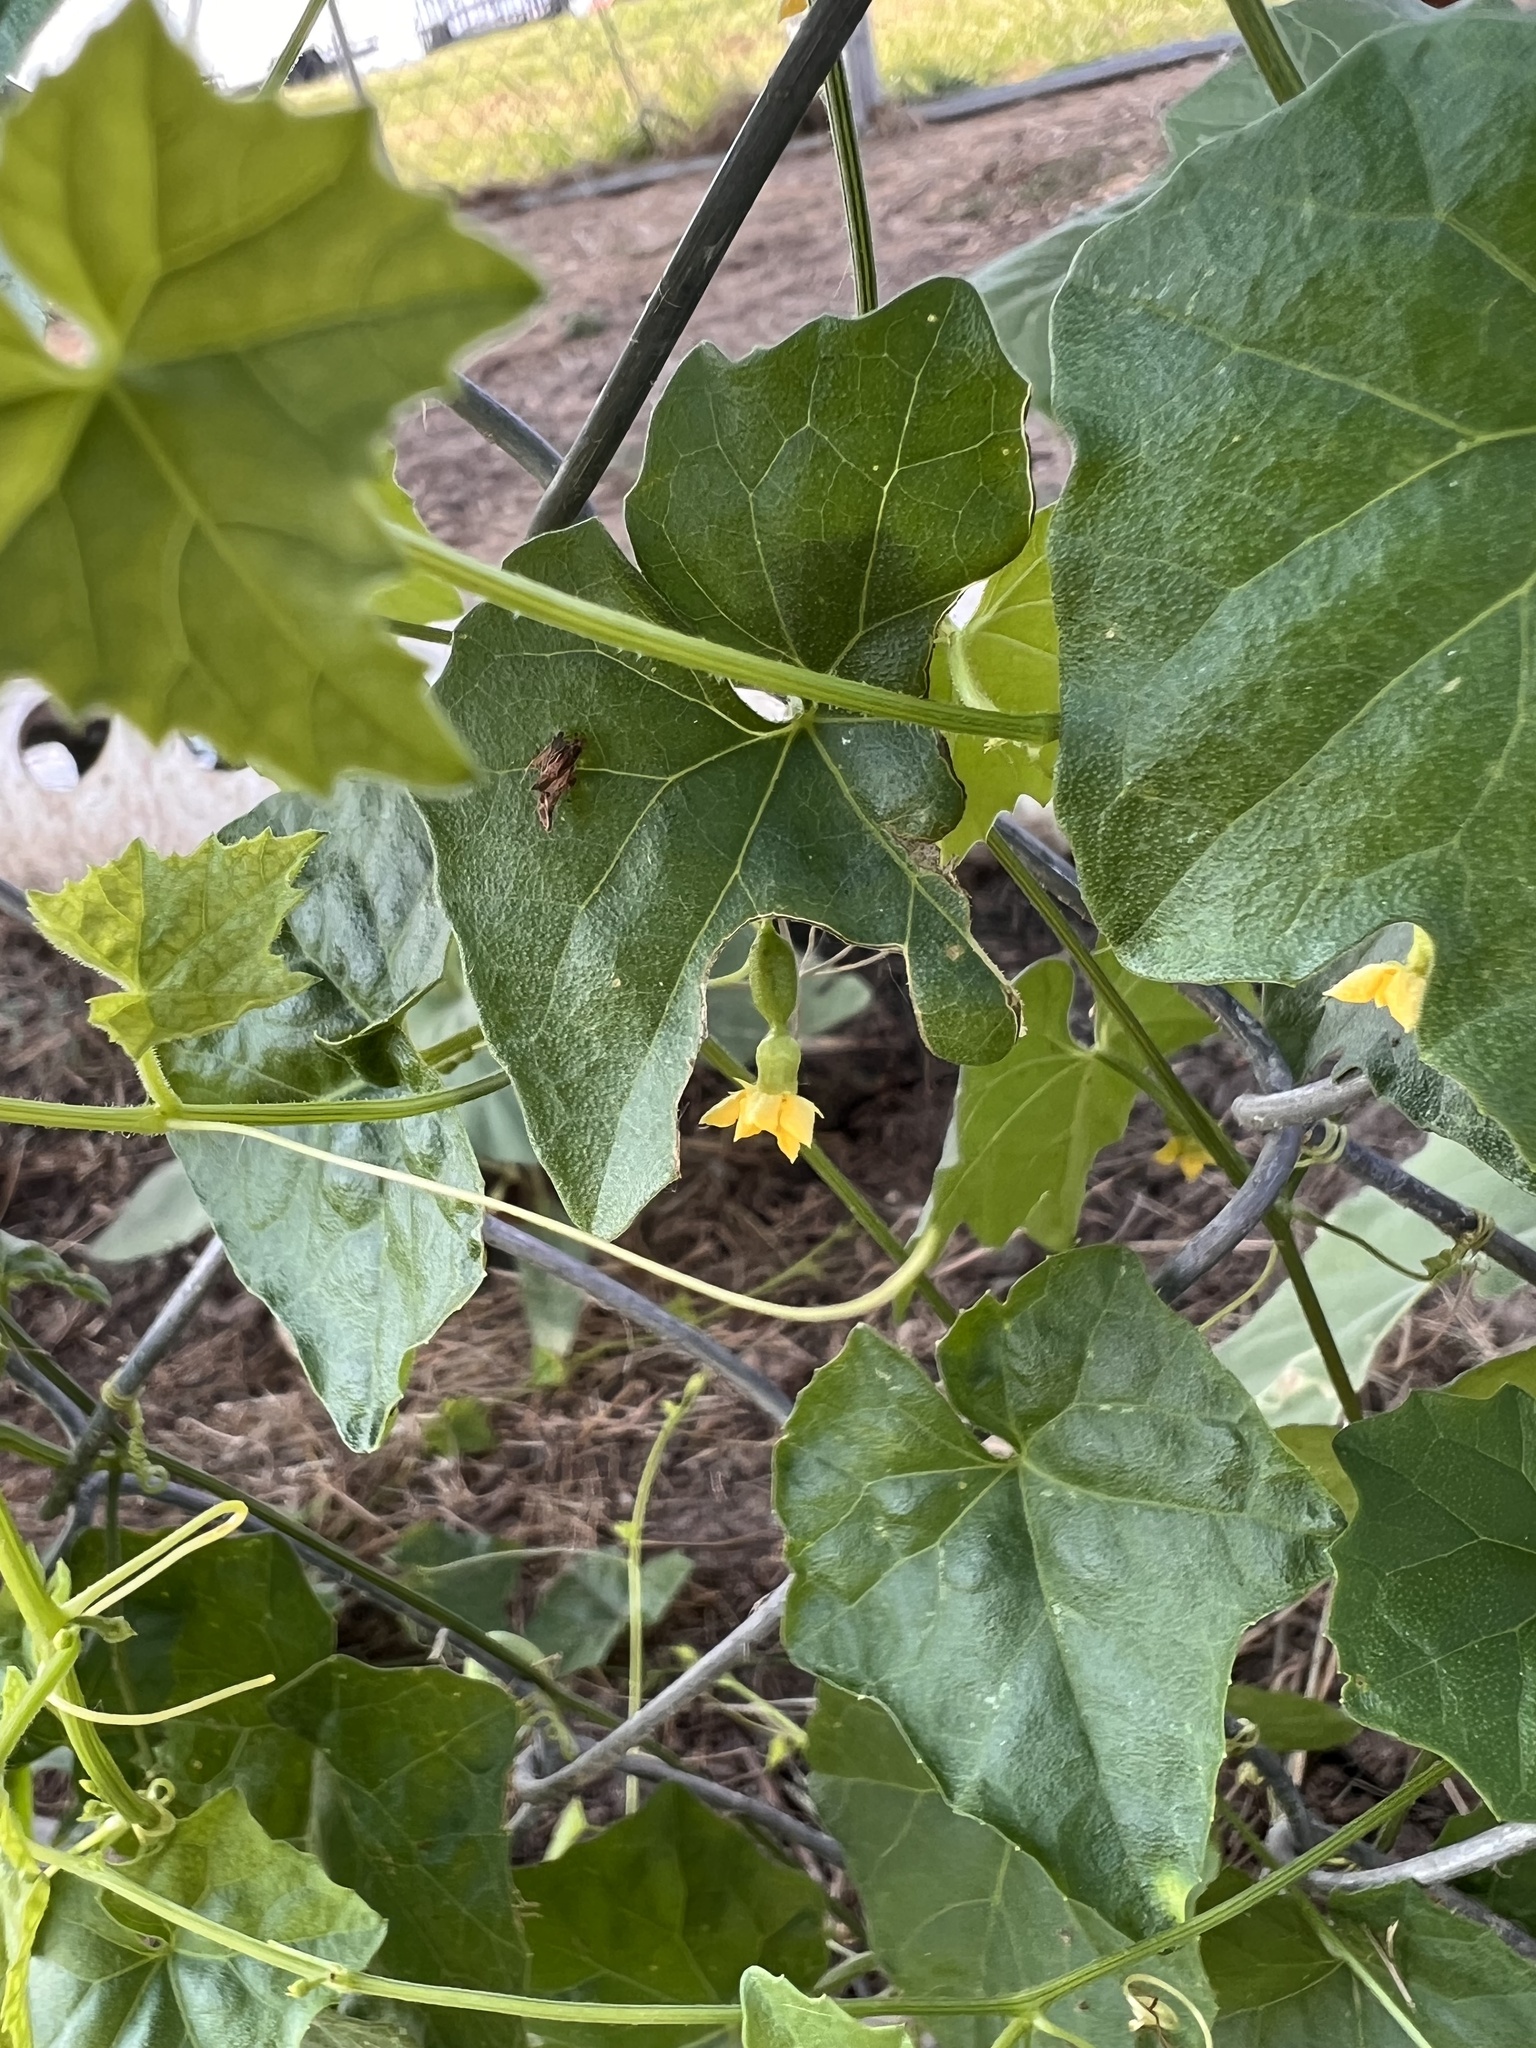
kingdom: Plantae
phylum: Tracheophyta
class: Magnoliopsida
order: Cucurbitales
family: Cucurbitaceae
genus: Melothria
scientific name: Melothria pendula
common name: Creeping-cucumber
